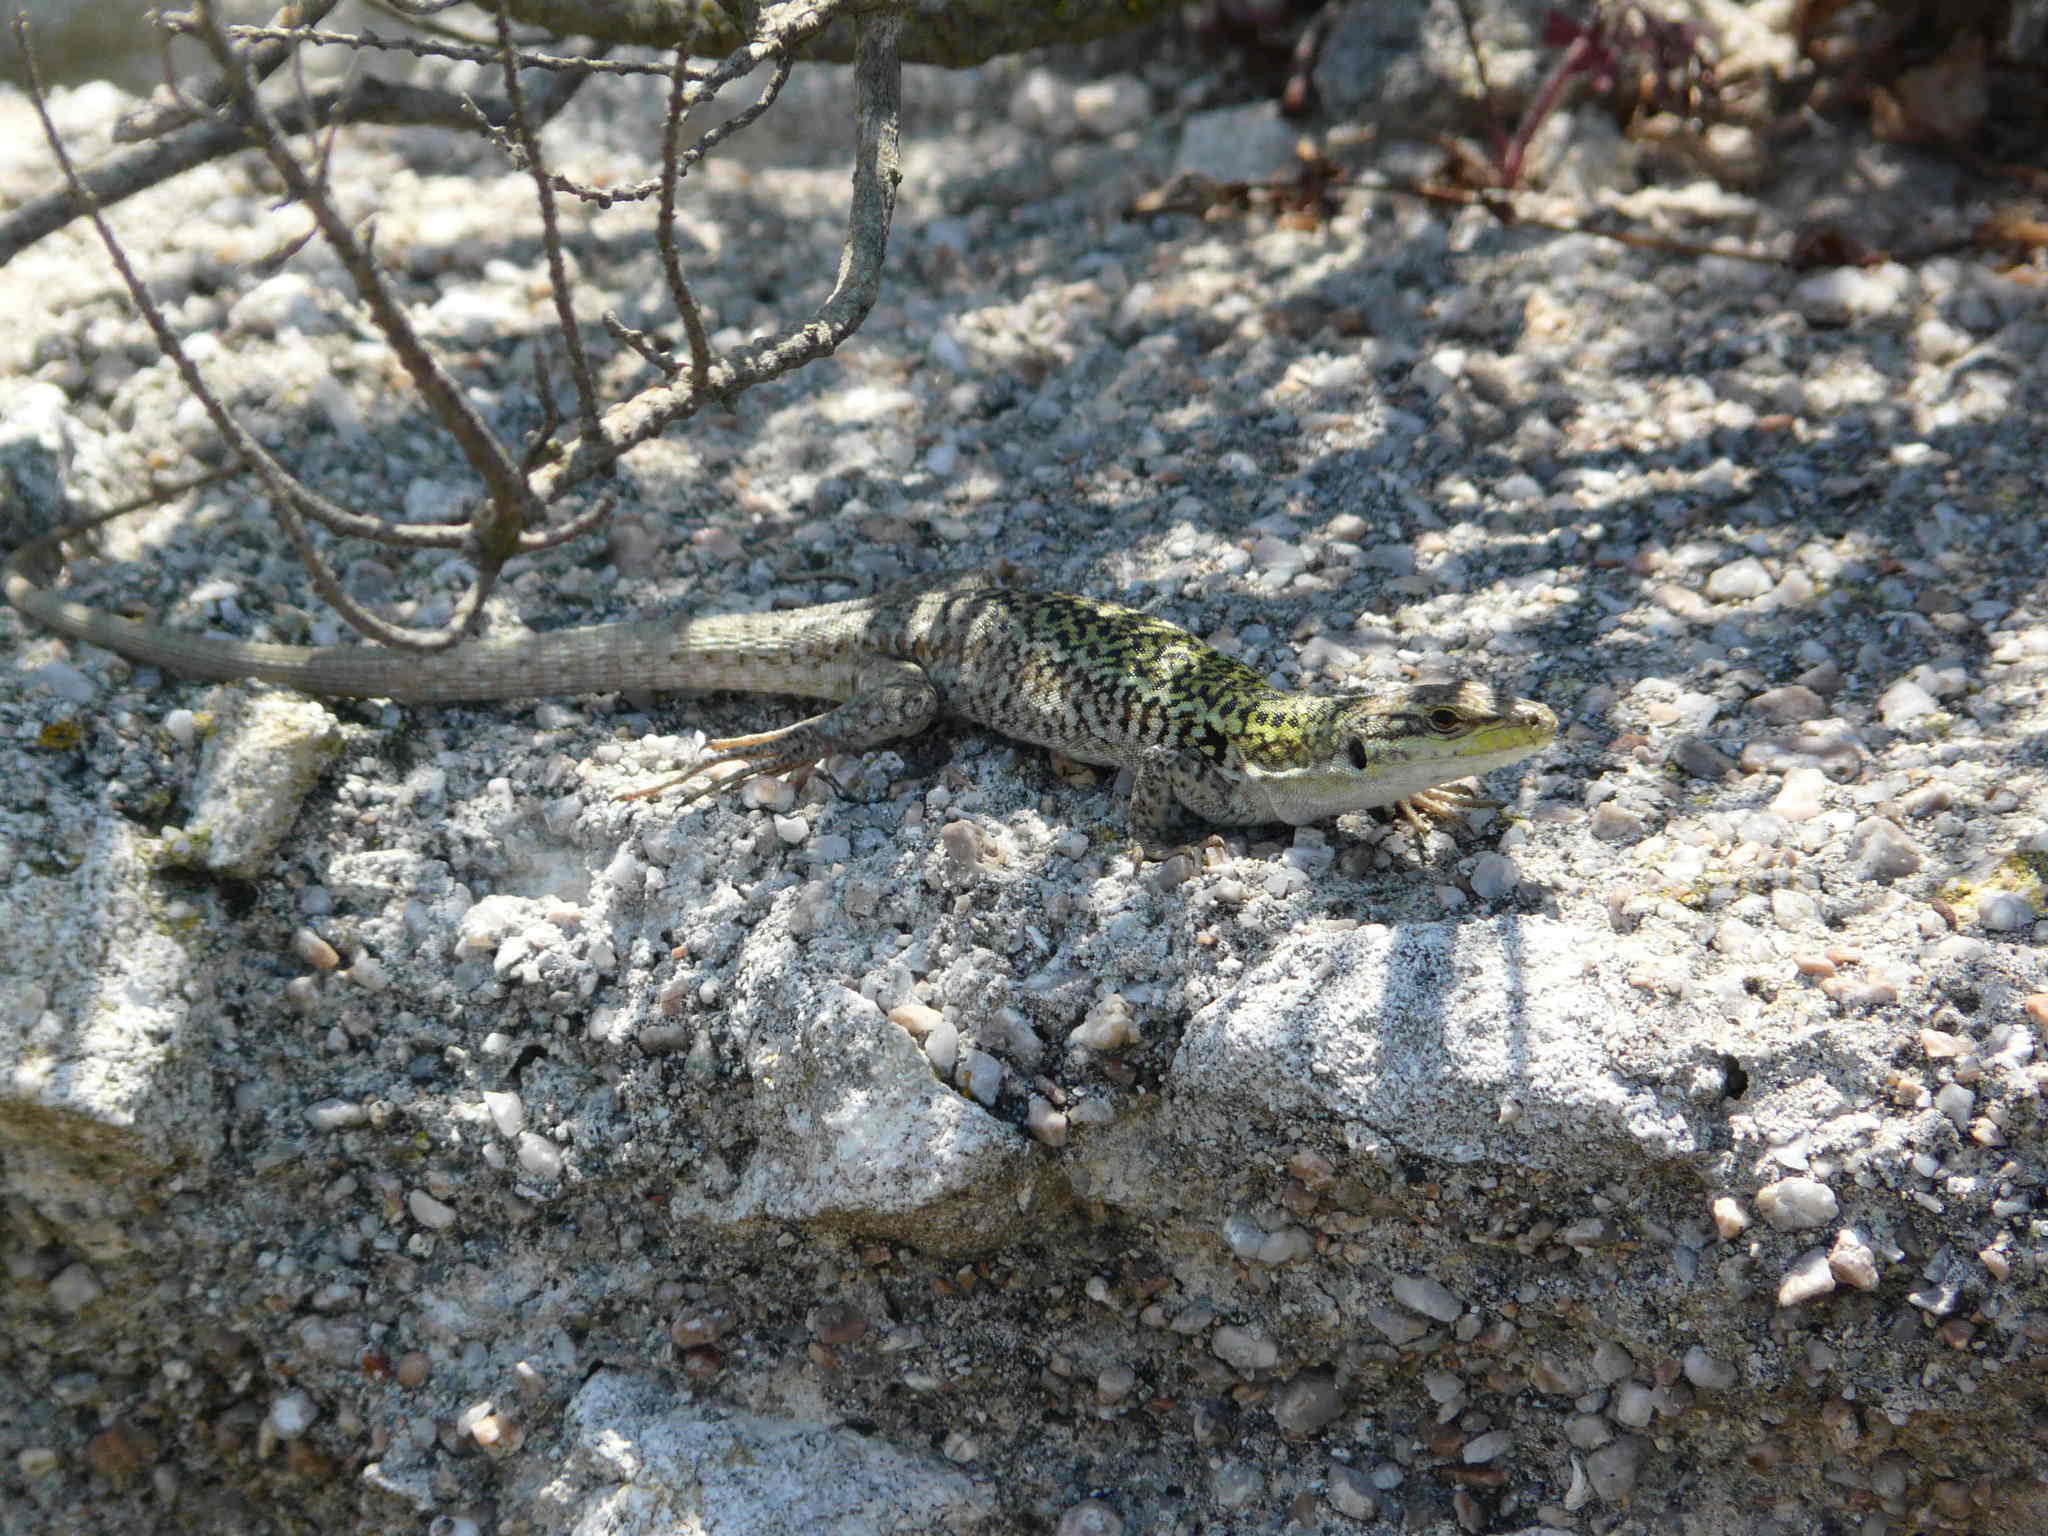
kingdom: Animalia
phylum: Chordata
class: Squamata
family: Lacertidae
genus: Podarcis
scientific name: Podarcis siculus
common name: Italian wall lizard
